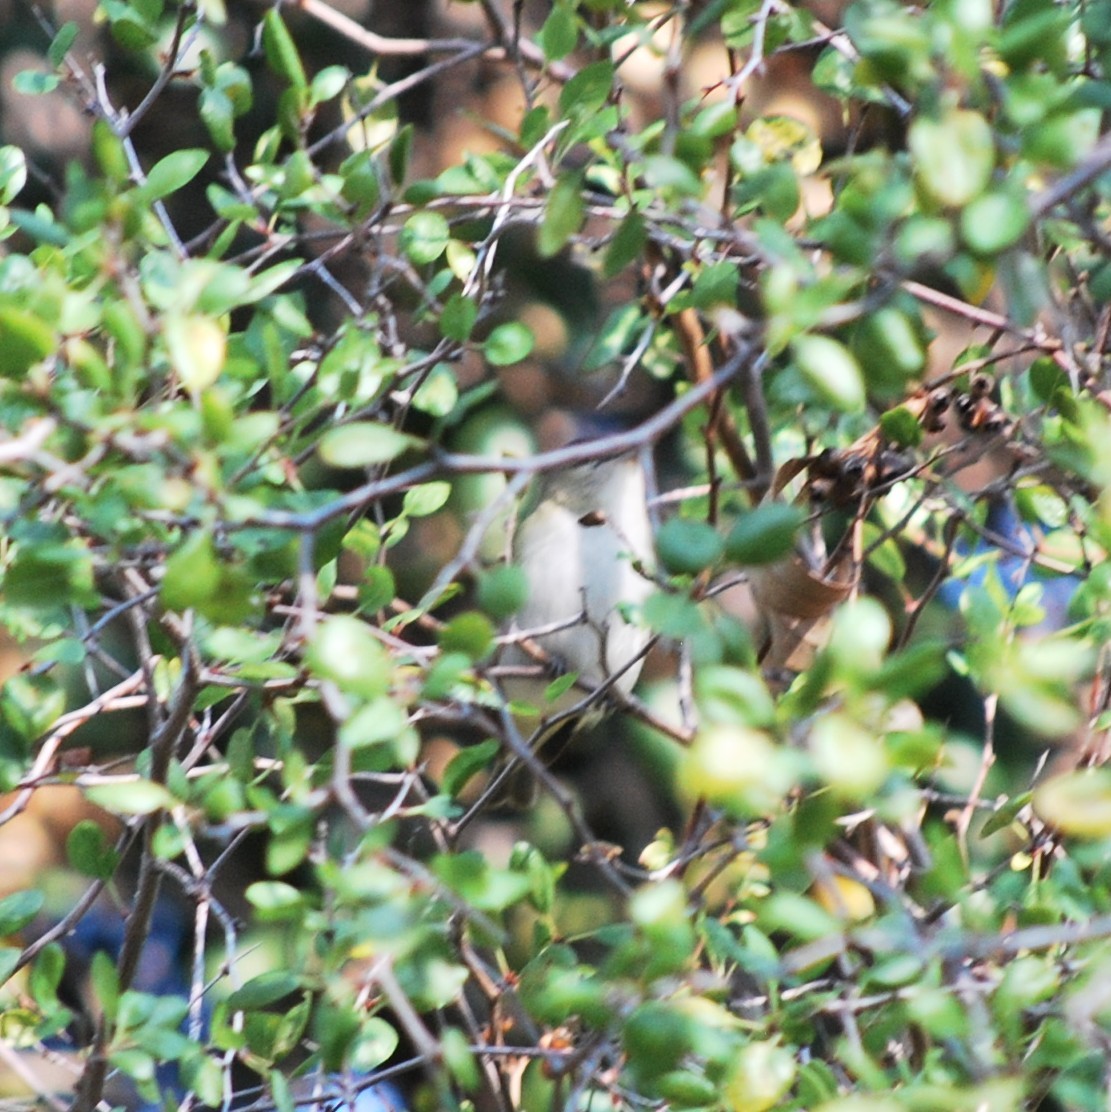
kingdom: Animalia
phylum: Chordata
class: Aves
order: Passeriformes
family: Vireonidae
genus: Vireo
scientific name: Vireo olivaceus
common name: Red-eyed vireo
